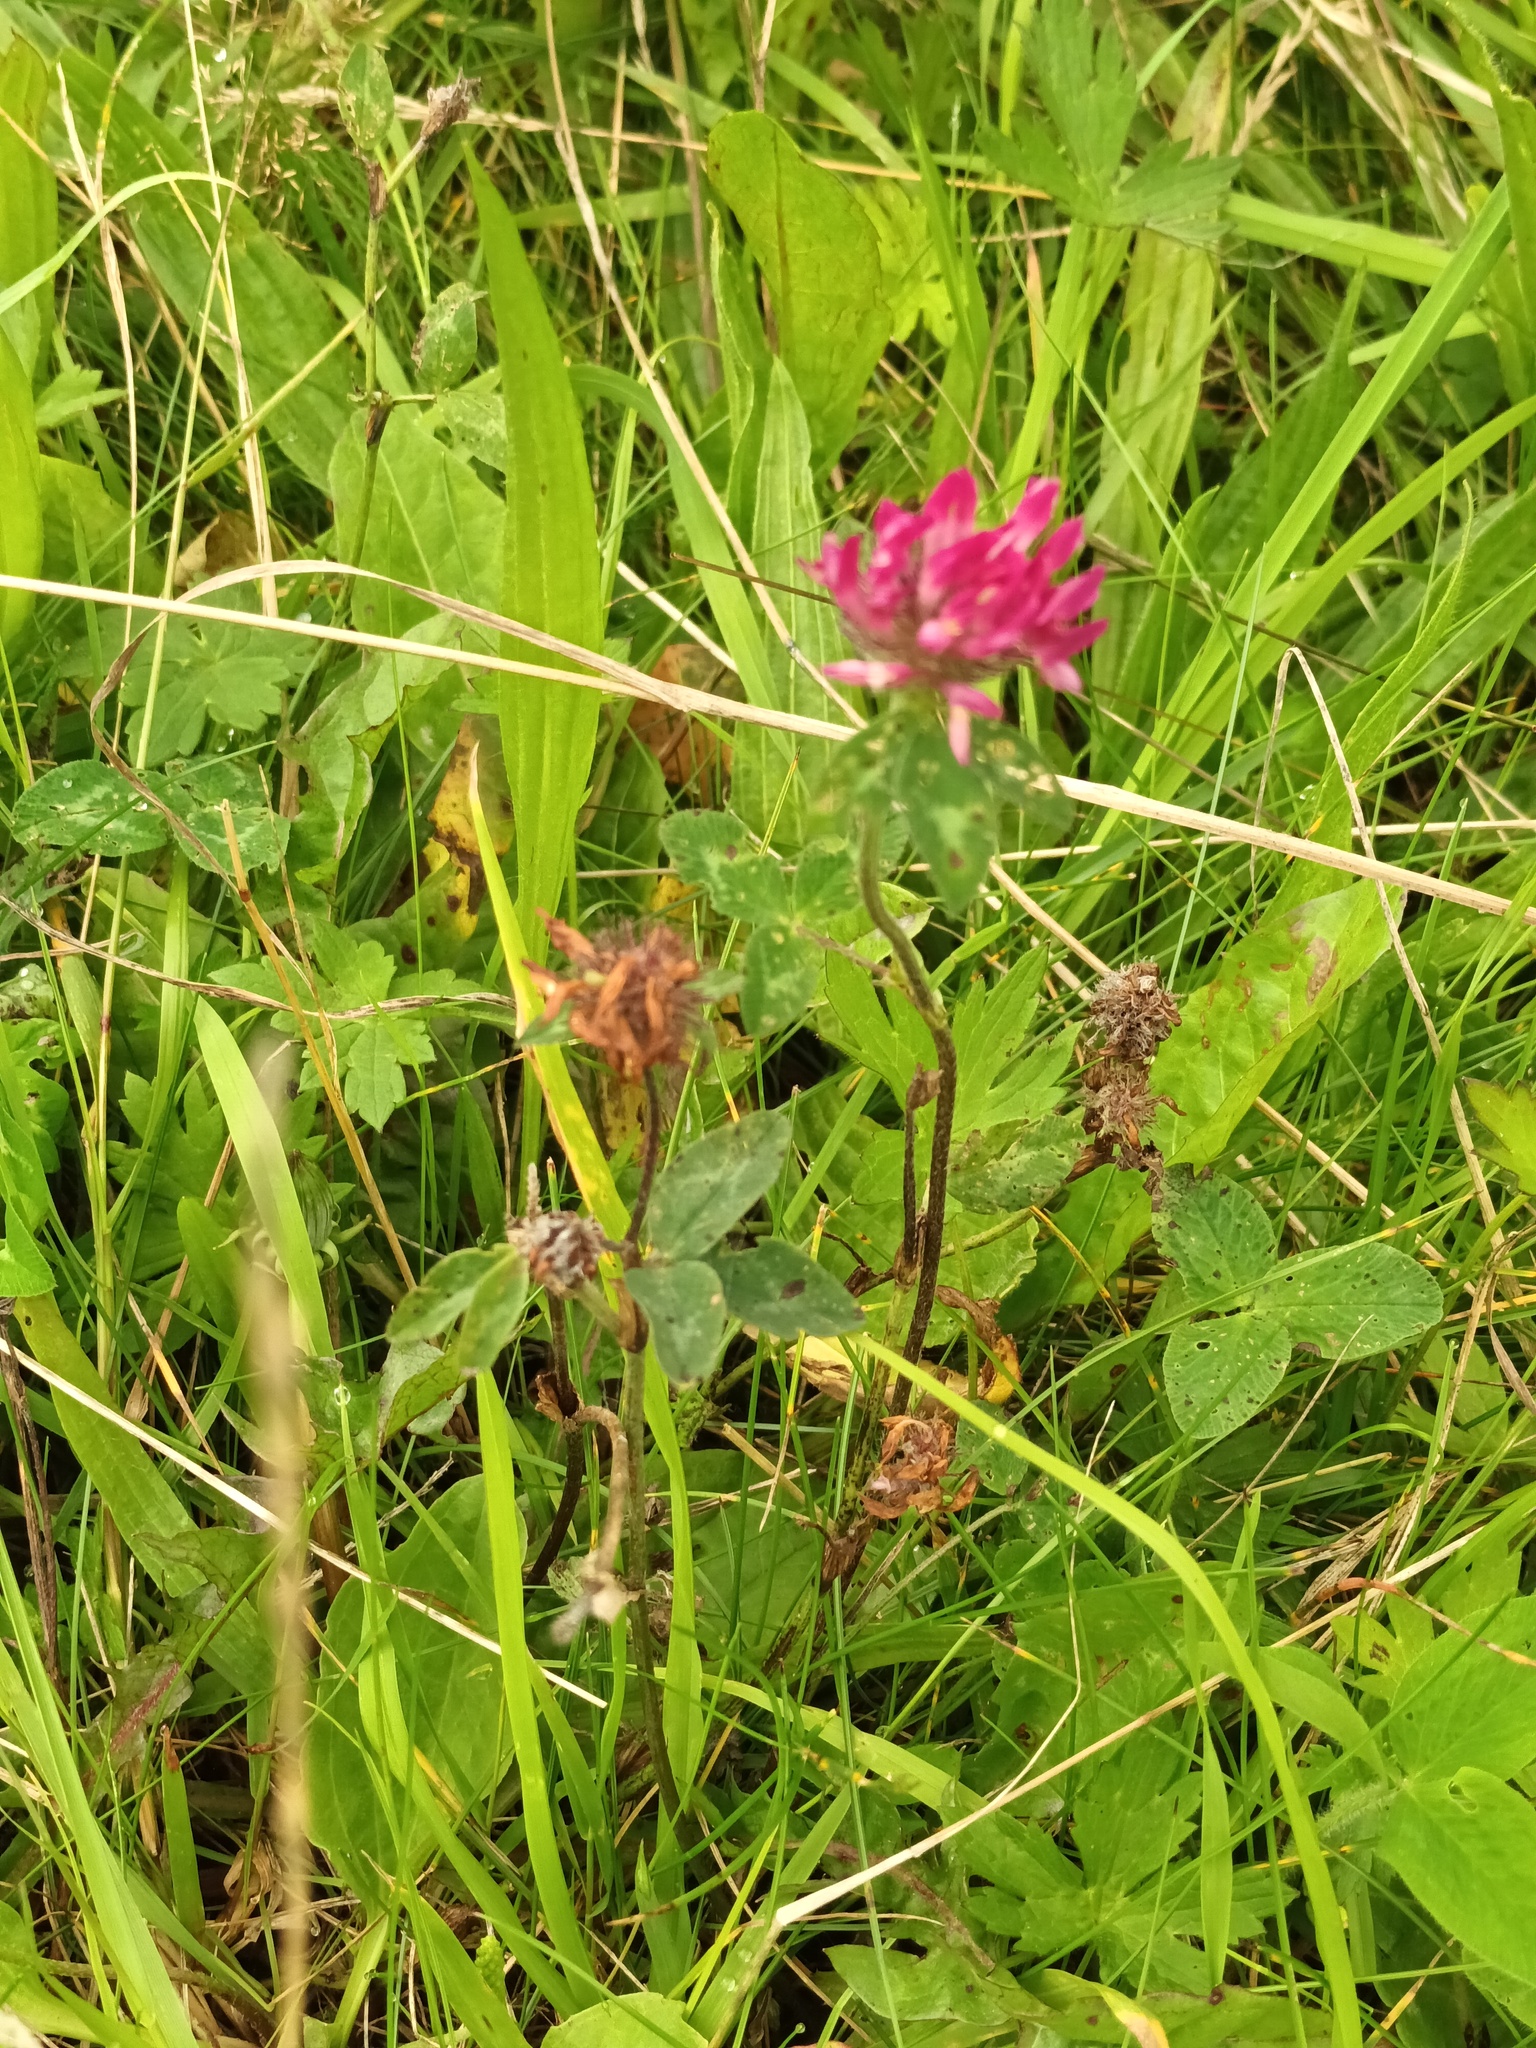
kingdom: Plantae
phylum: Tracheophyta
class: Magnoliopsida
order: Fabales
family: Fabaceae
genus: Trifolium
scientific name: Trifolium pratense
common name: Red clover
